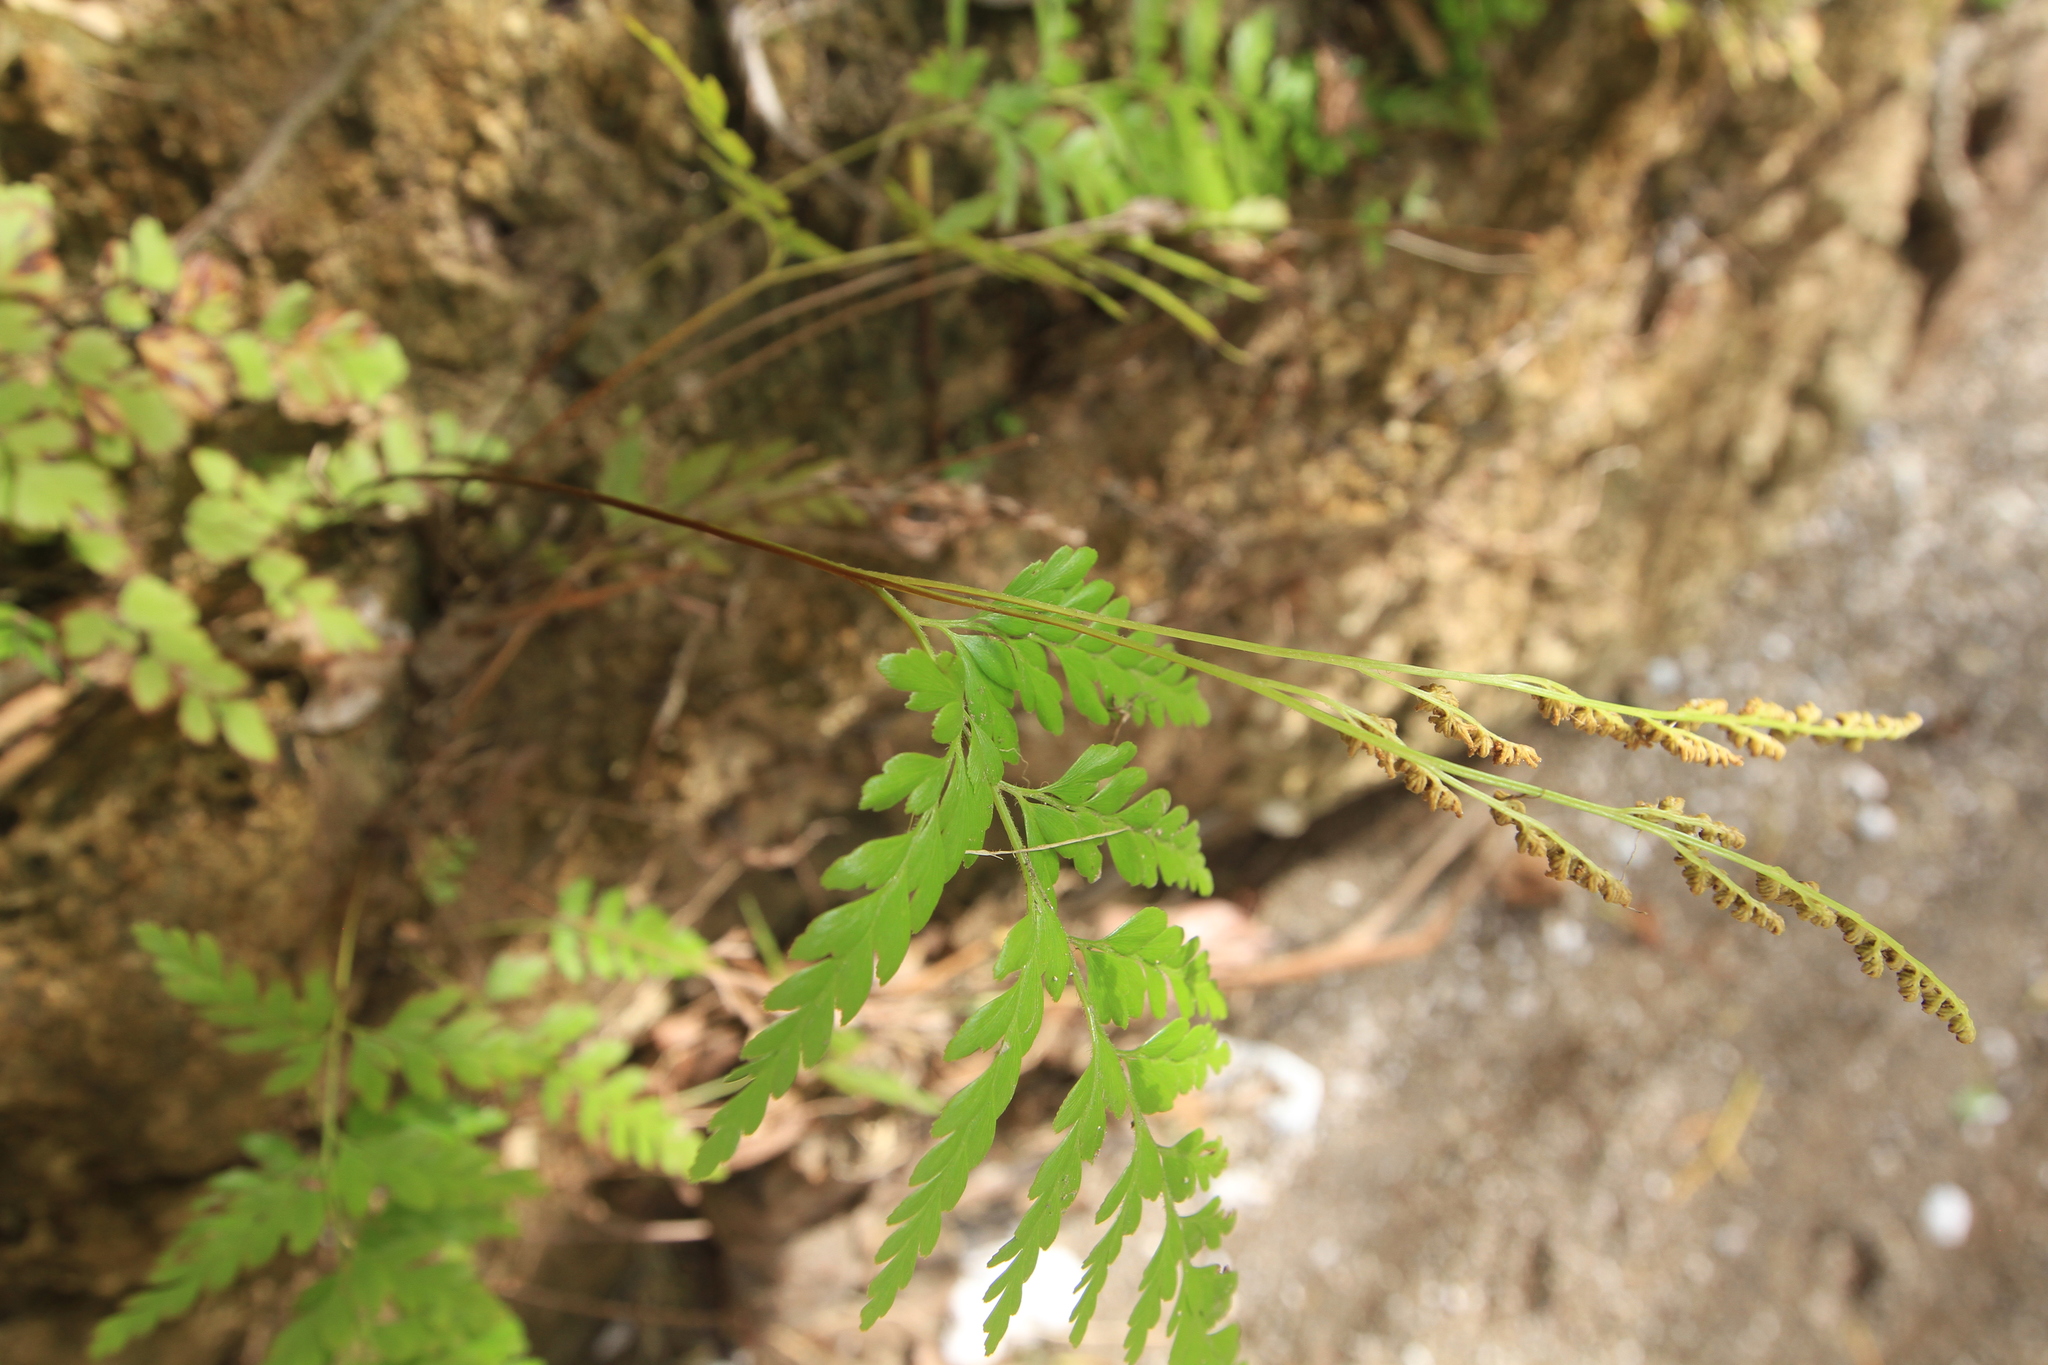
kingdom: Plantae
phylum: Tracheophyta
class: Polypodiopsida
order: Schizaeales
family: Anemiaceae
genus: Anemia
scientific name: Anemia adiantifolia
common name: Pine fern
